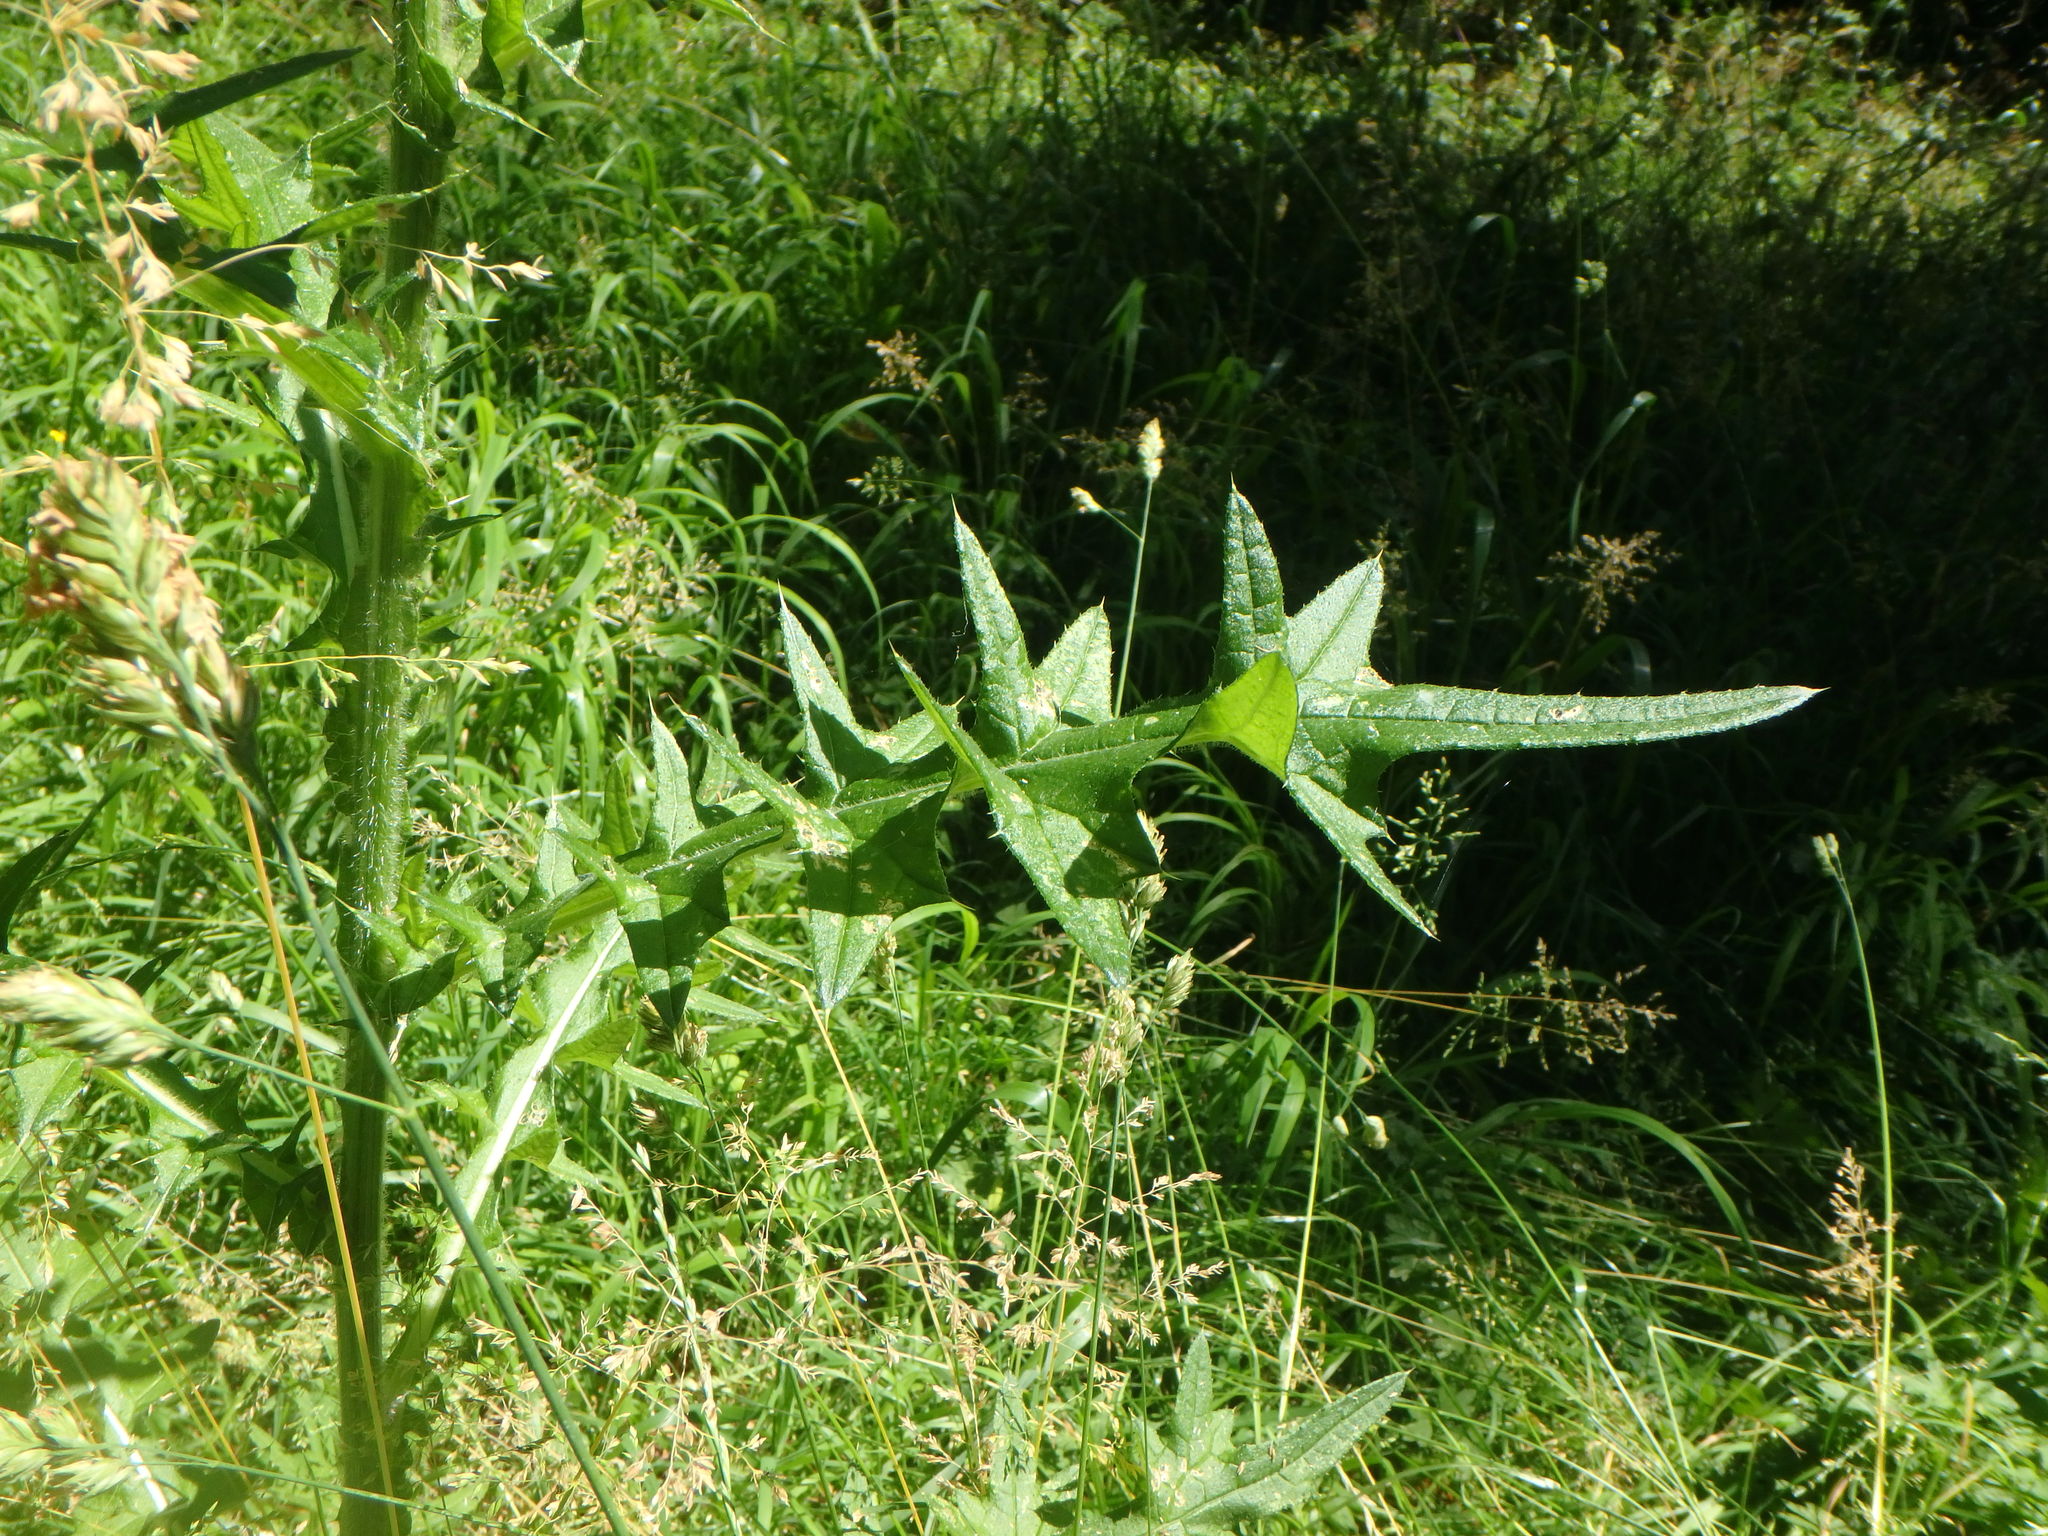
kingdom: Plantae
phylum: Tracheophyta
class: Magnoliopsida
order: Asterales
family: Asteraceae
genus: Cirsium
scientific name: Cirsium vulgare
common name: Bull thistle
